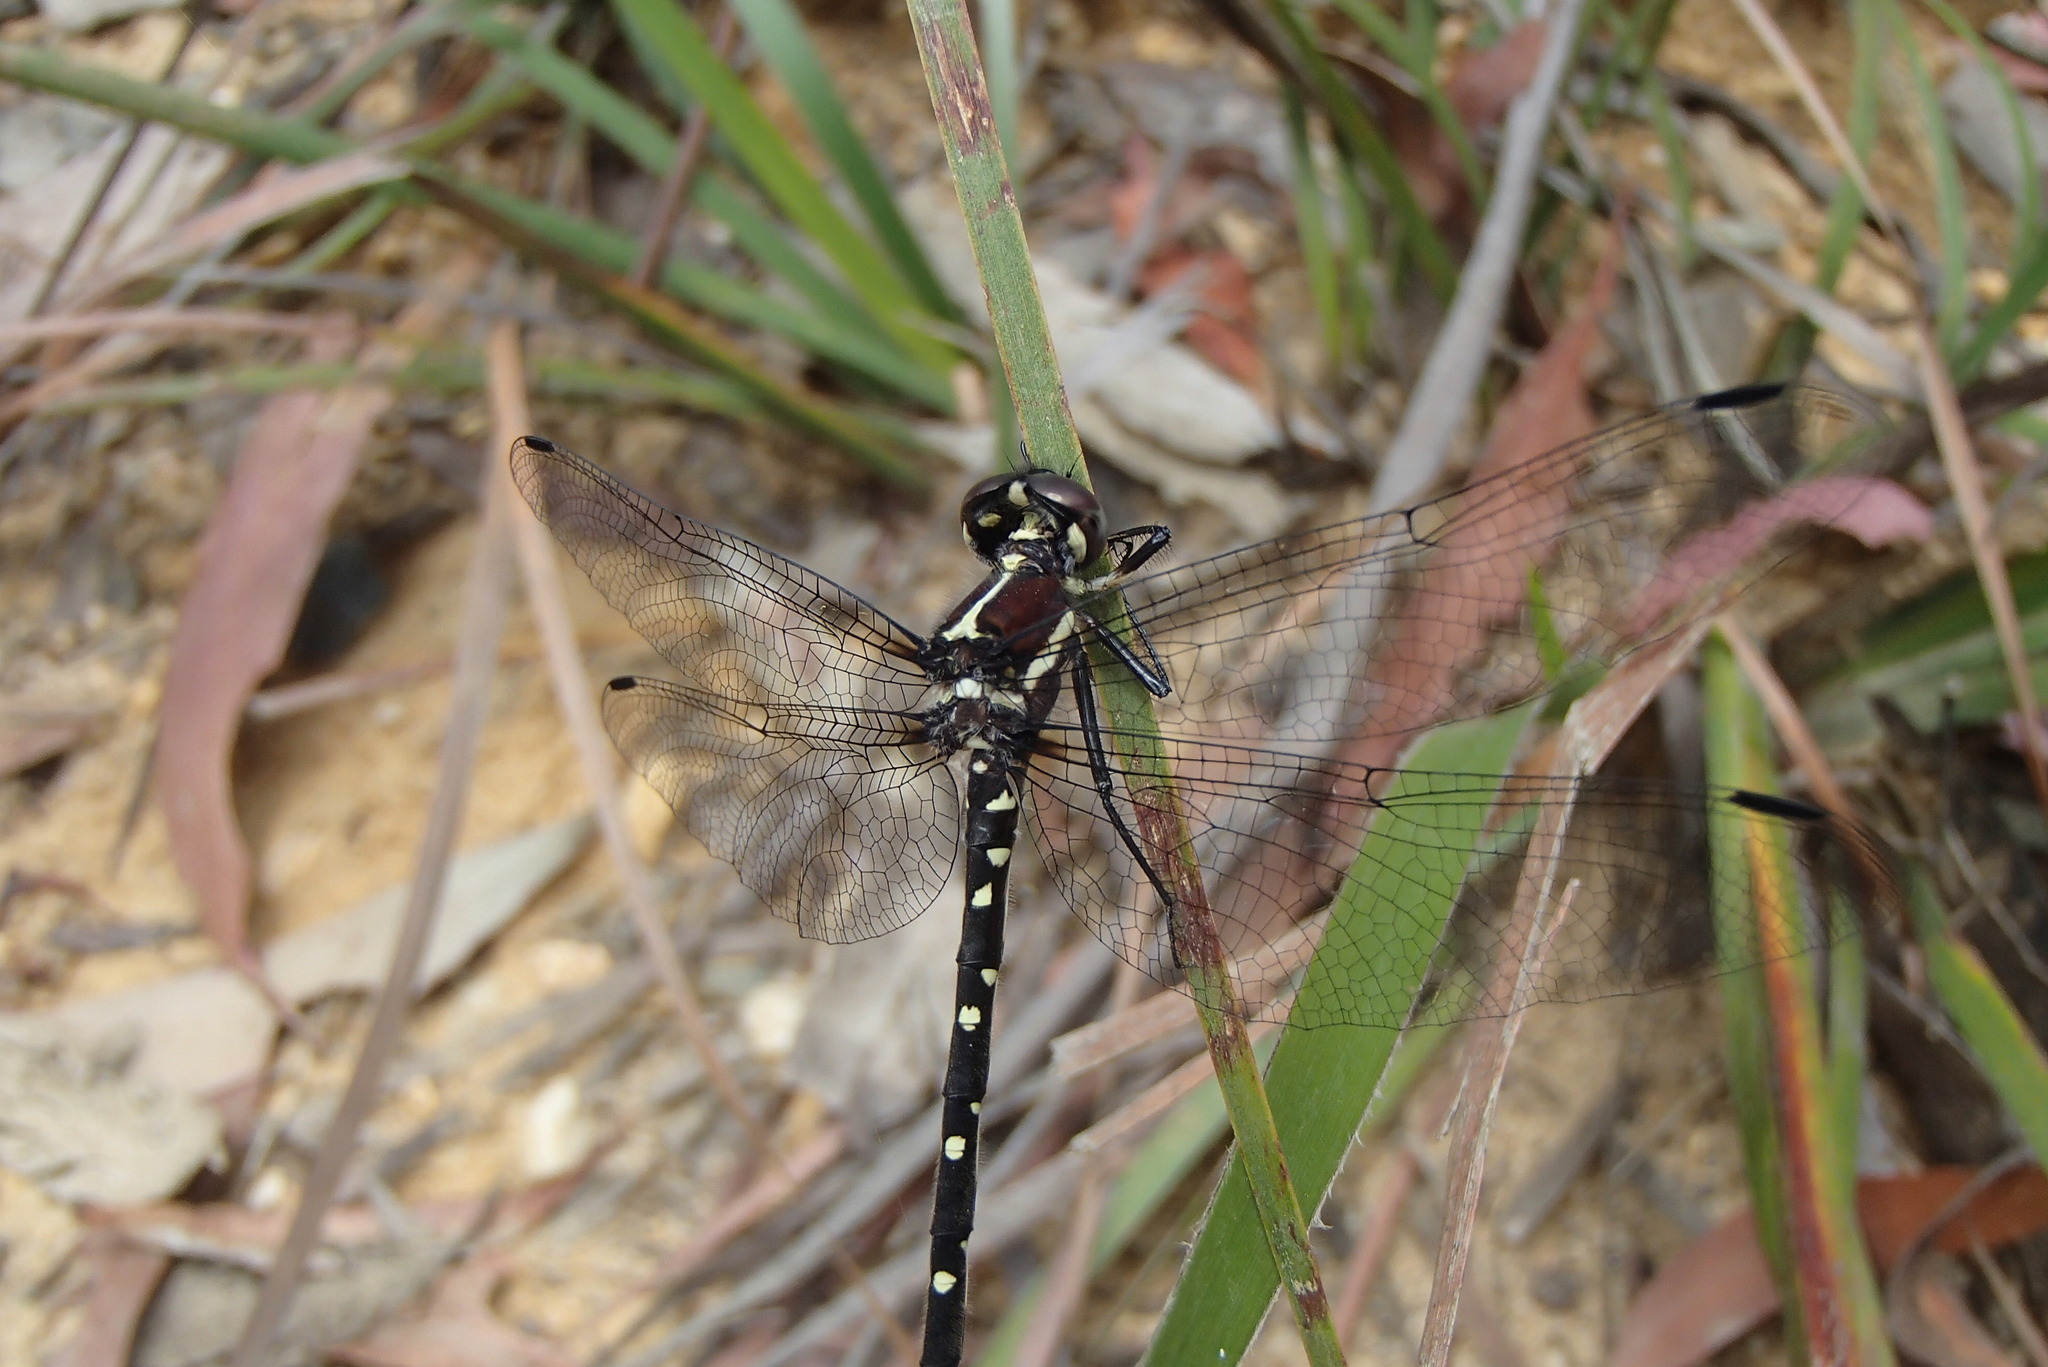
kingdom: Animalia
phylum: Arthropoda
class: Insecta
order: Odonata
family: Synthemistidae
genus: Eusynthemis
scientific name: Eusynthemis tillyardi
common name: Mountain tigertail
